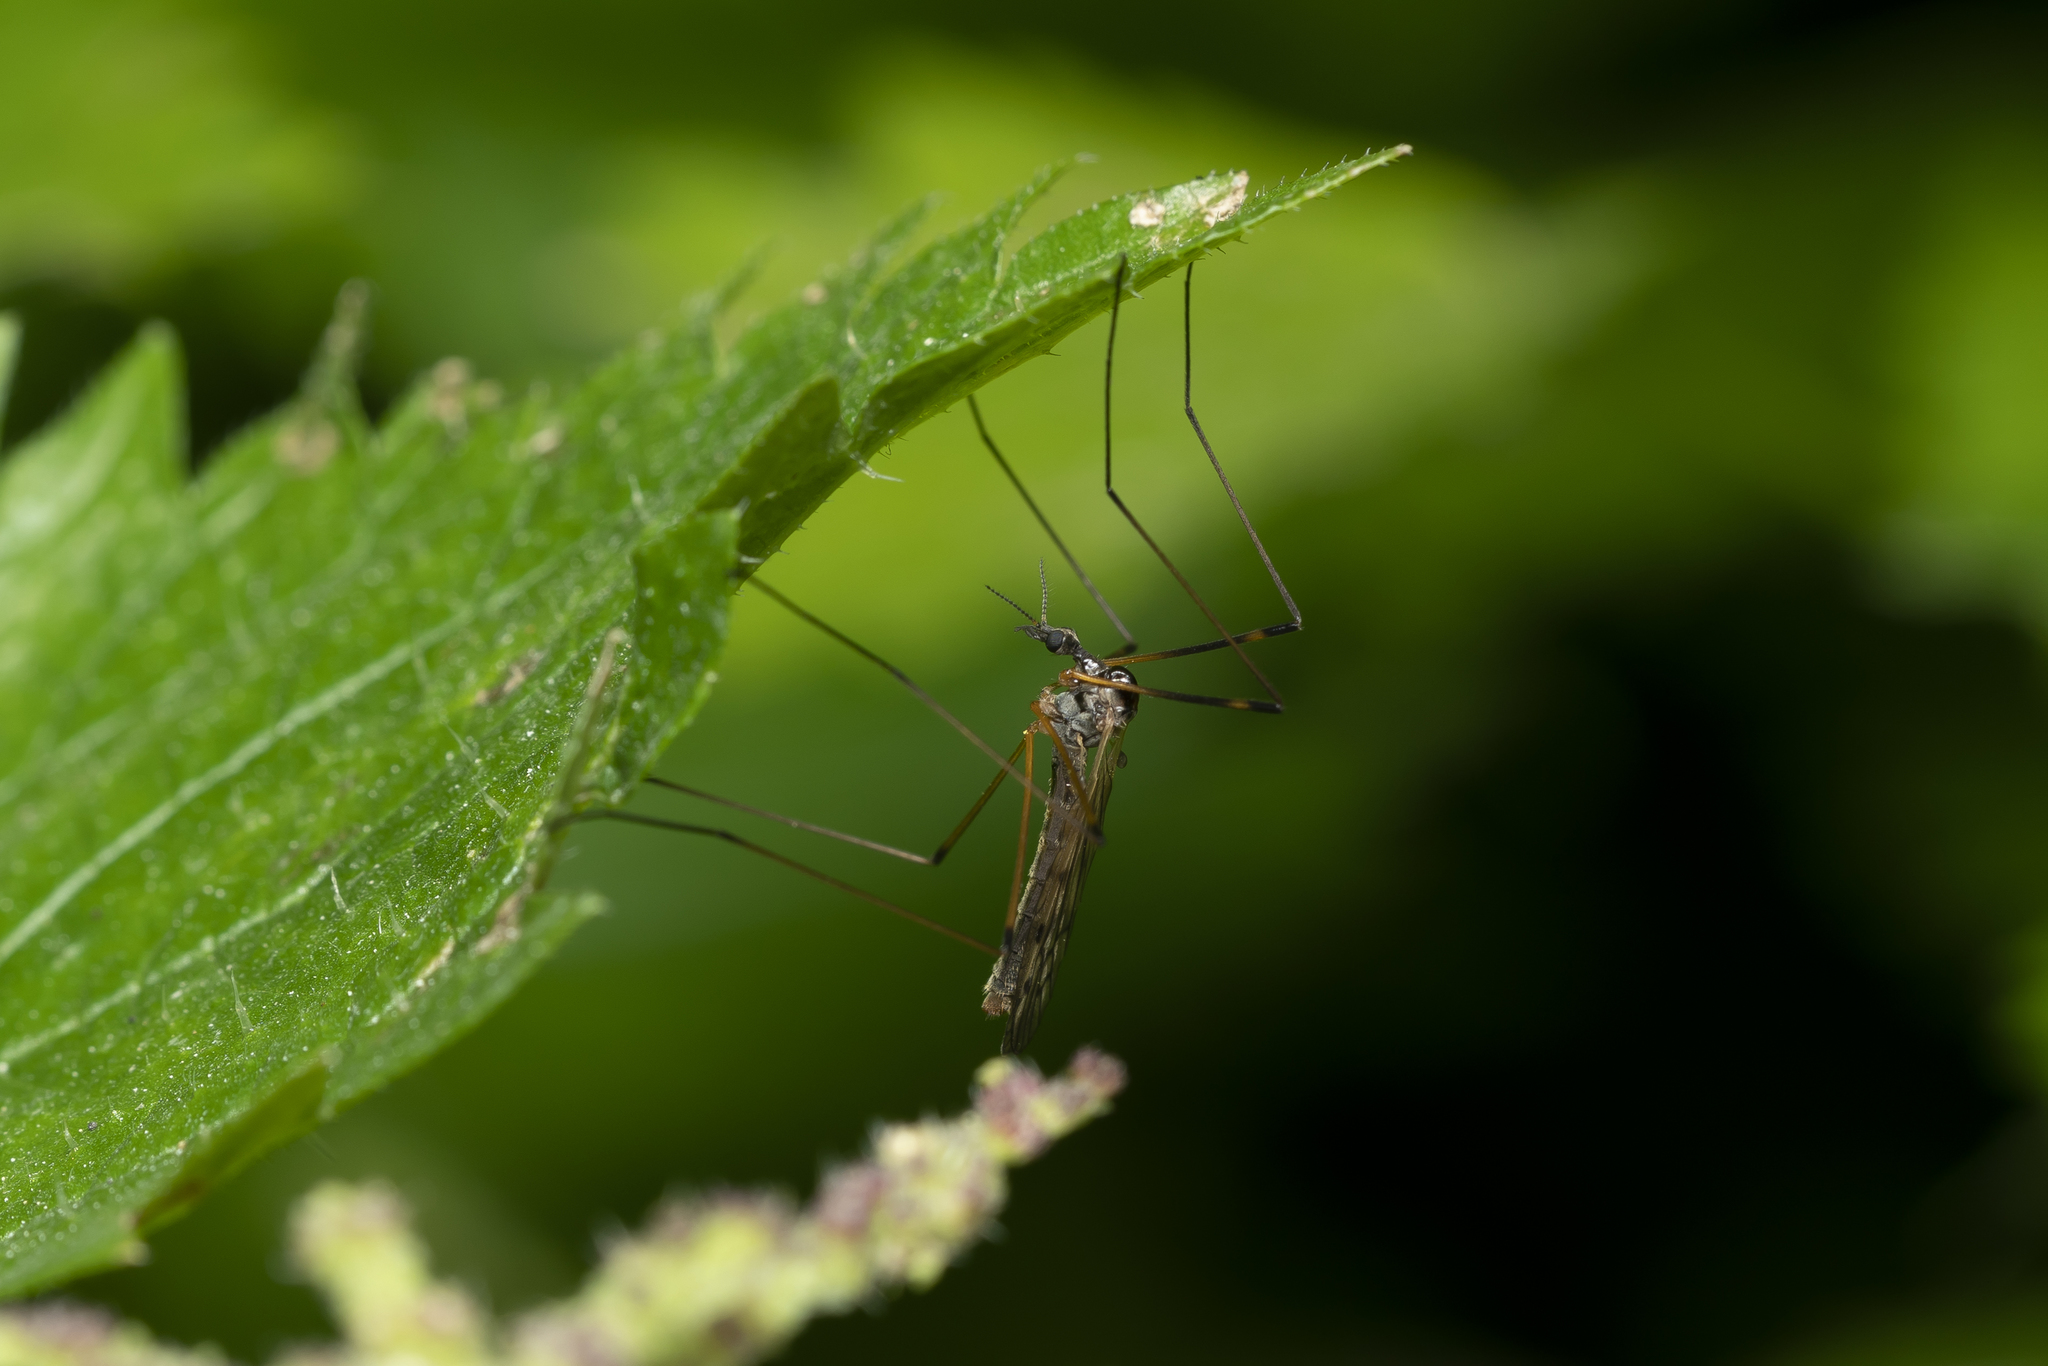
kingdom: Animalia
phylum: Arthropoda
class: Insecta
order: Diptera
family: Limoniidae
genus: Limonia
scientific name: Limonia nussbaumi
